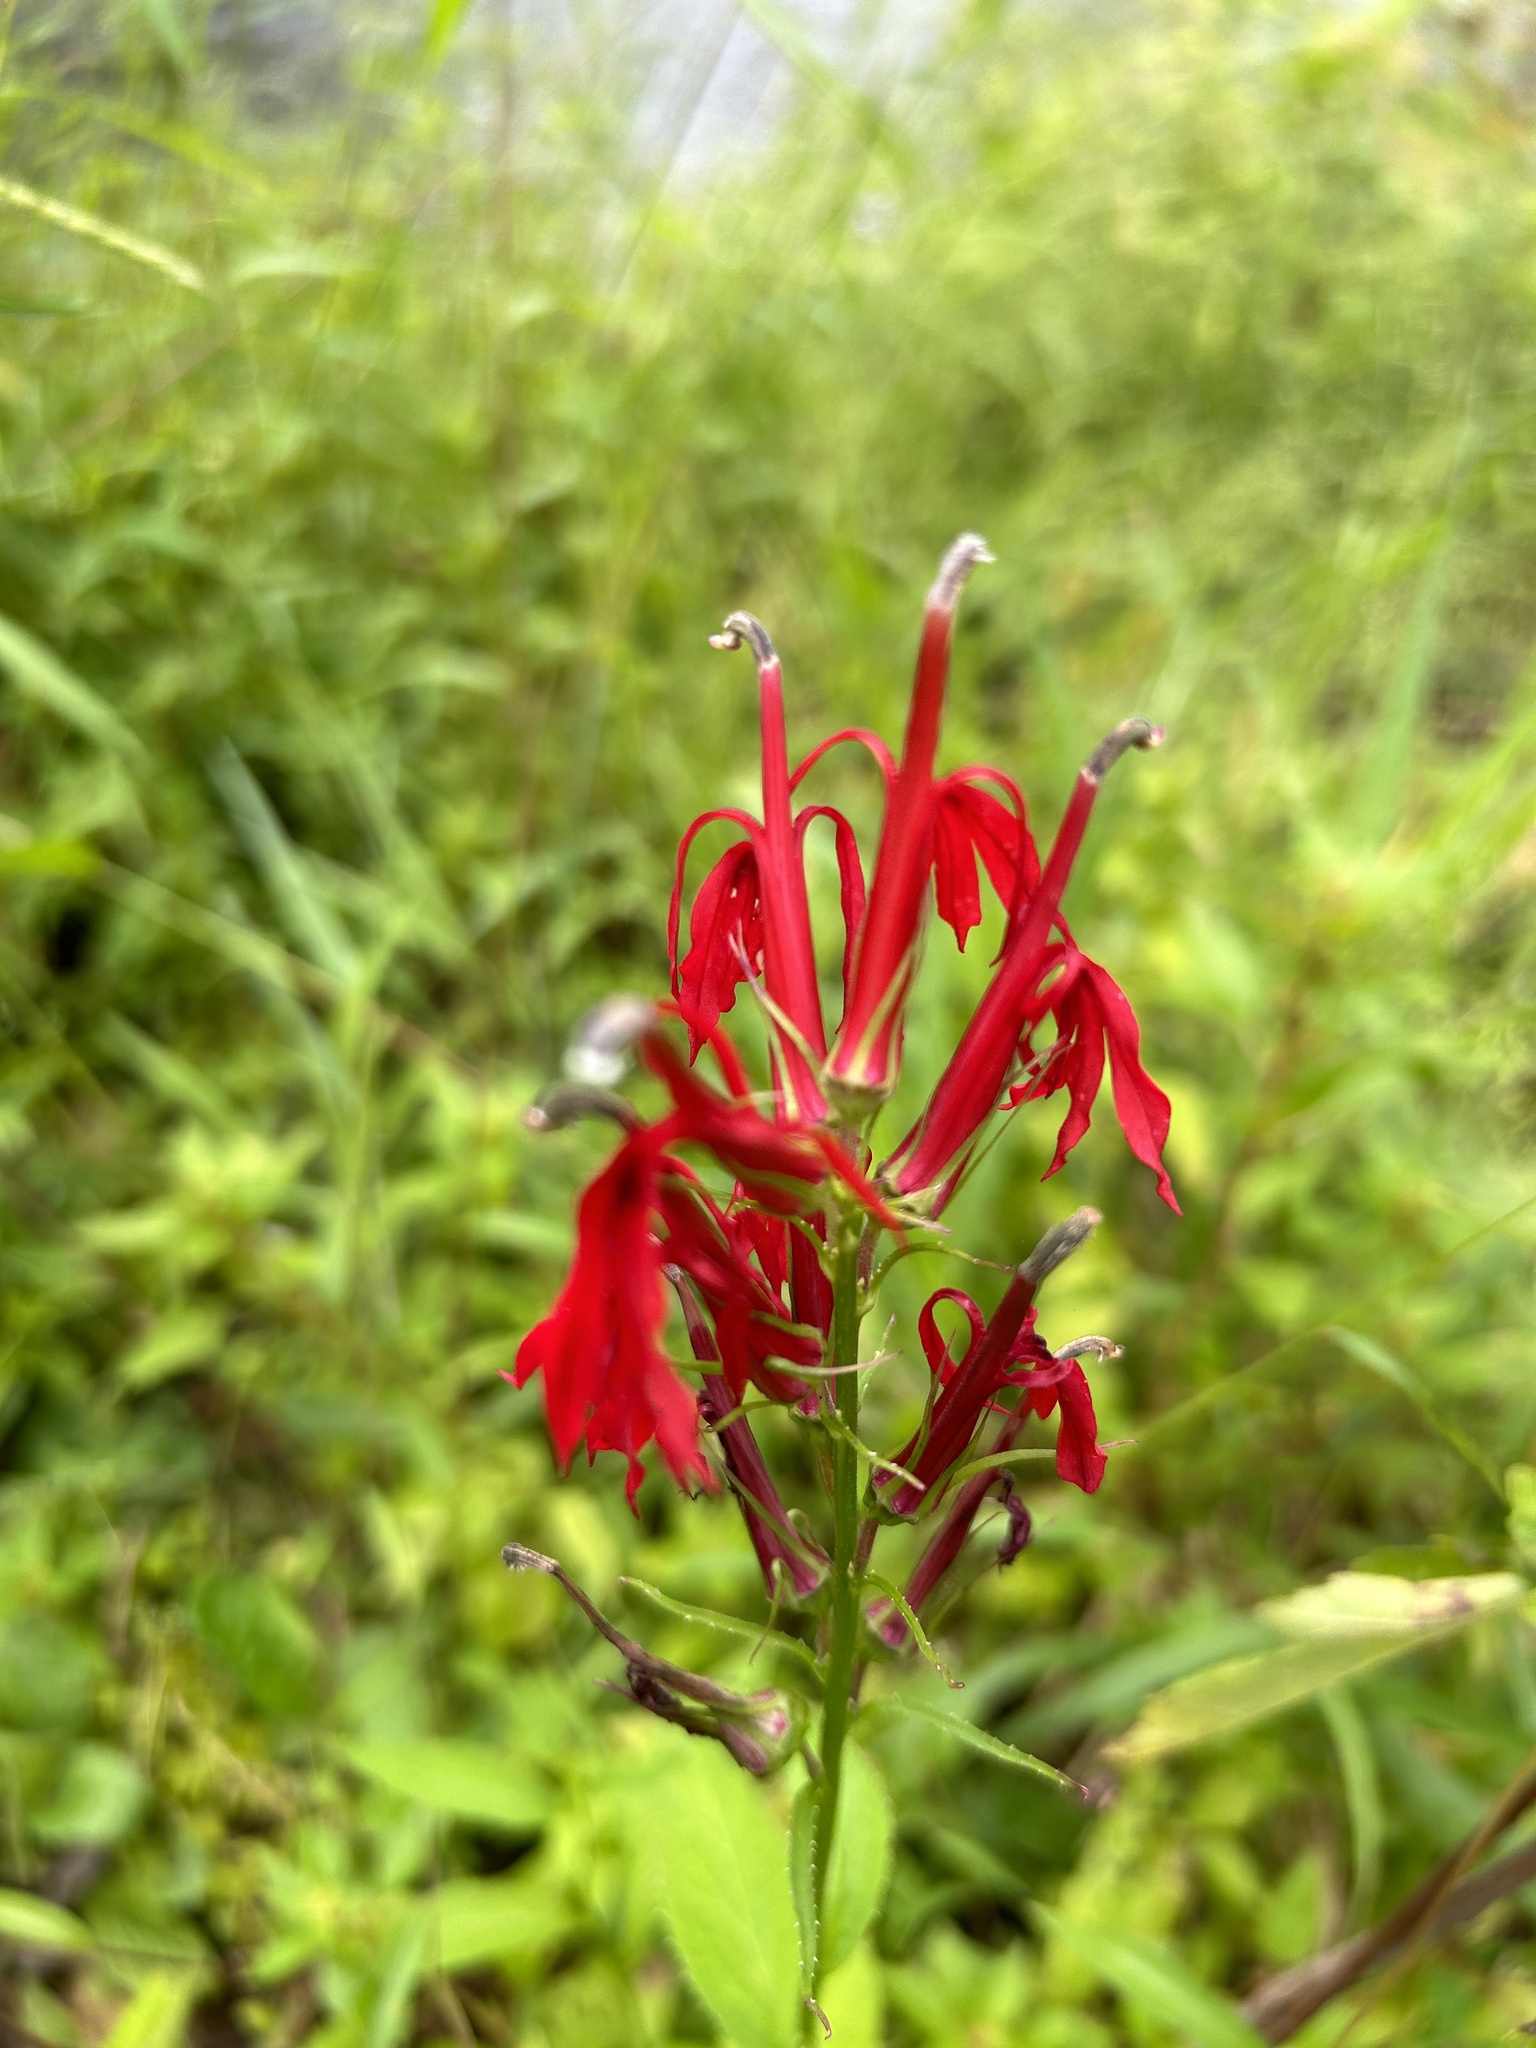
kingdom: Plantae
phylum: Tracheophyta
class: Magnoliopsida
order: Asterales
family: Campanulaceae
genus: Lobelia
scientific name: Lobelia cardinalis
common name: Cardinal flower
